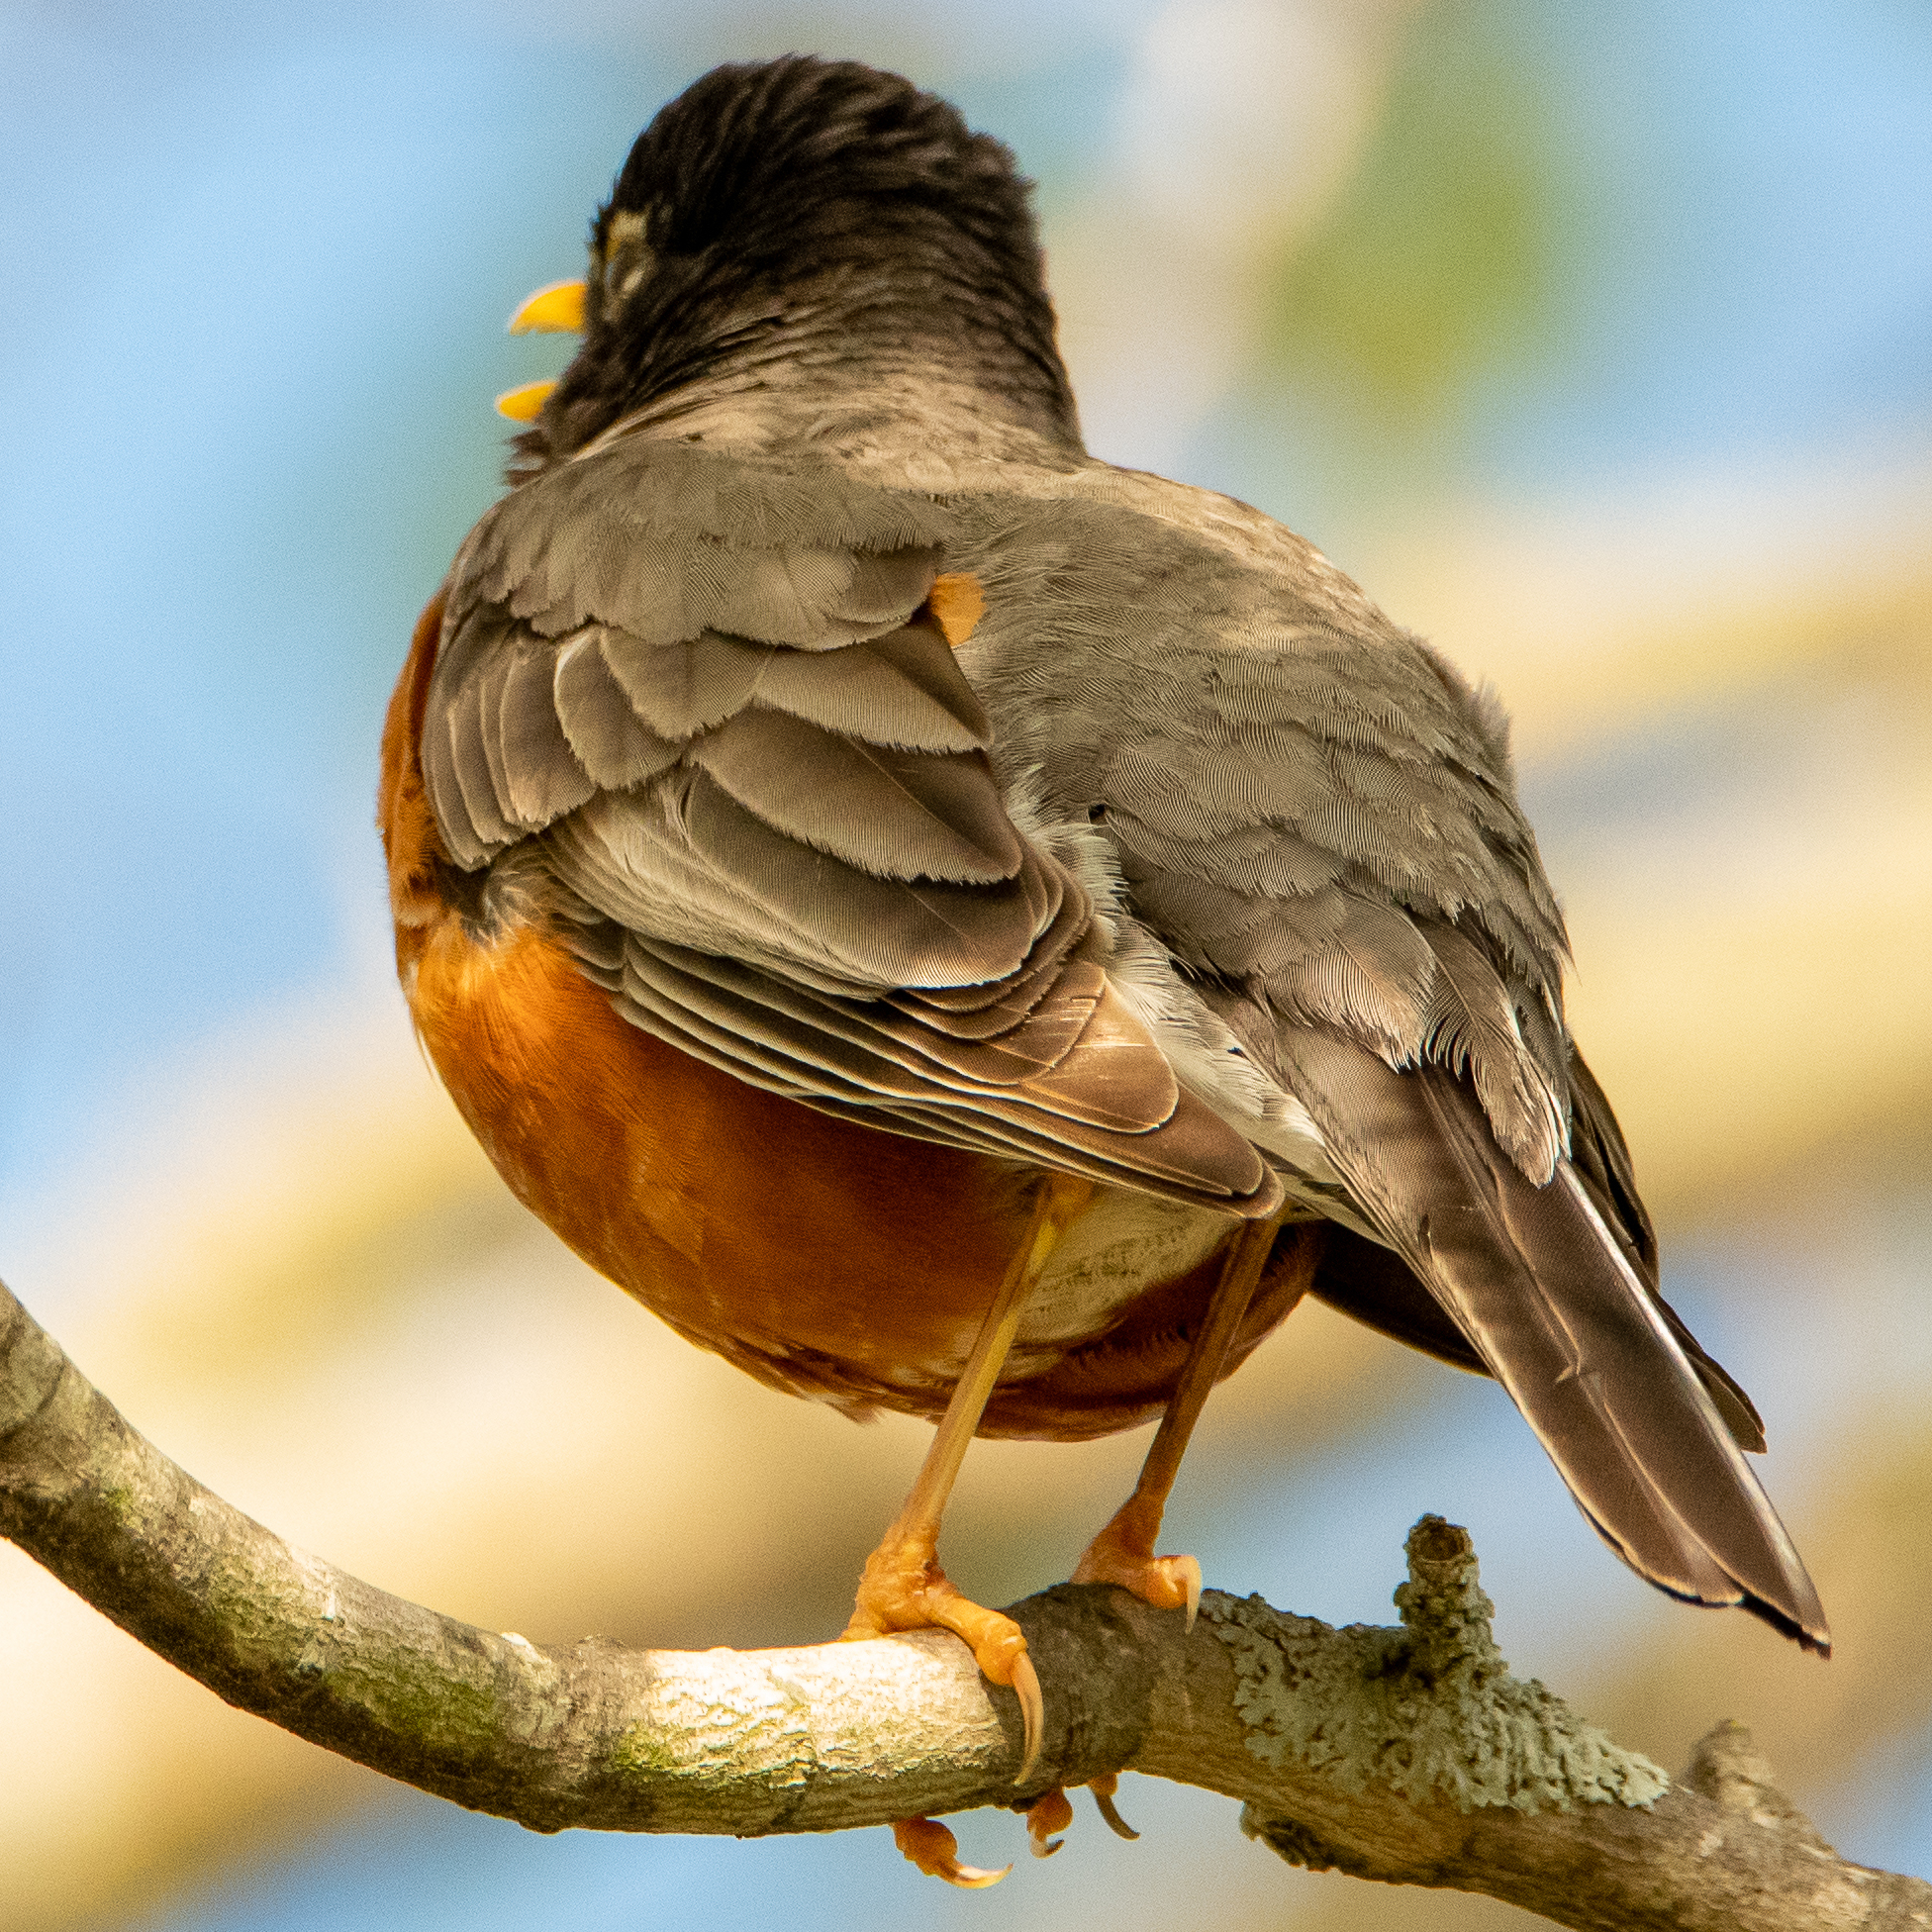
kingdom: Animalia
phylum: Chordata
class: Aves
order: Passeriformes
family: Turdidae
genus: Turdus
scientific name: Turdus migratorius
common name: American robin
